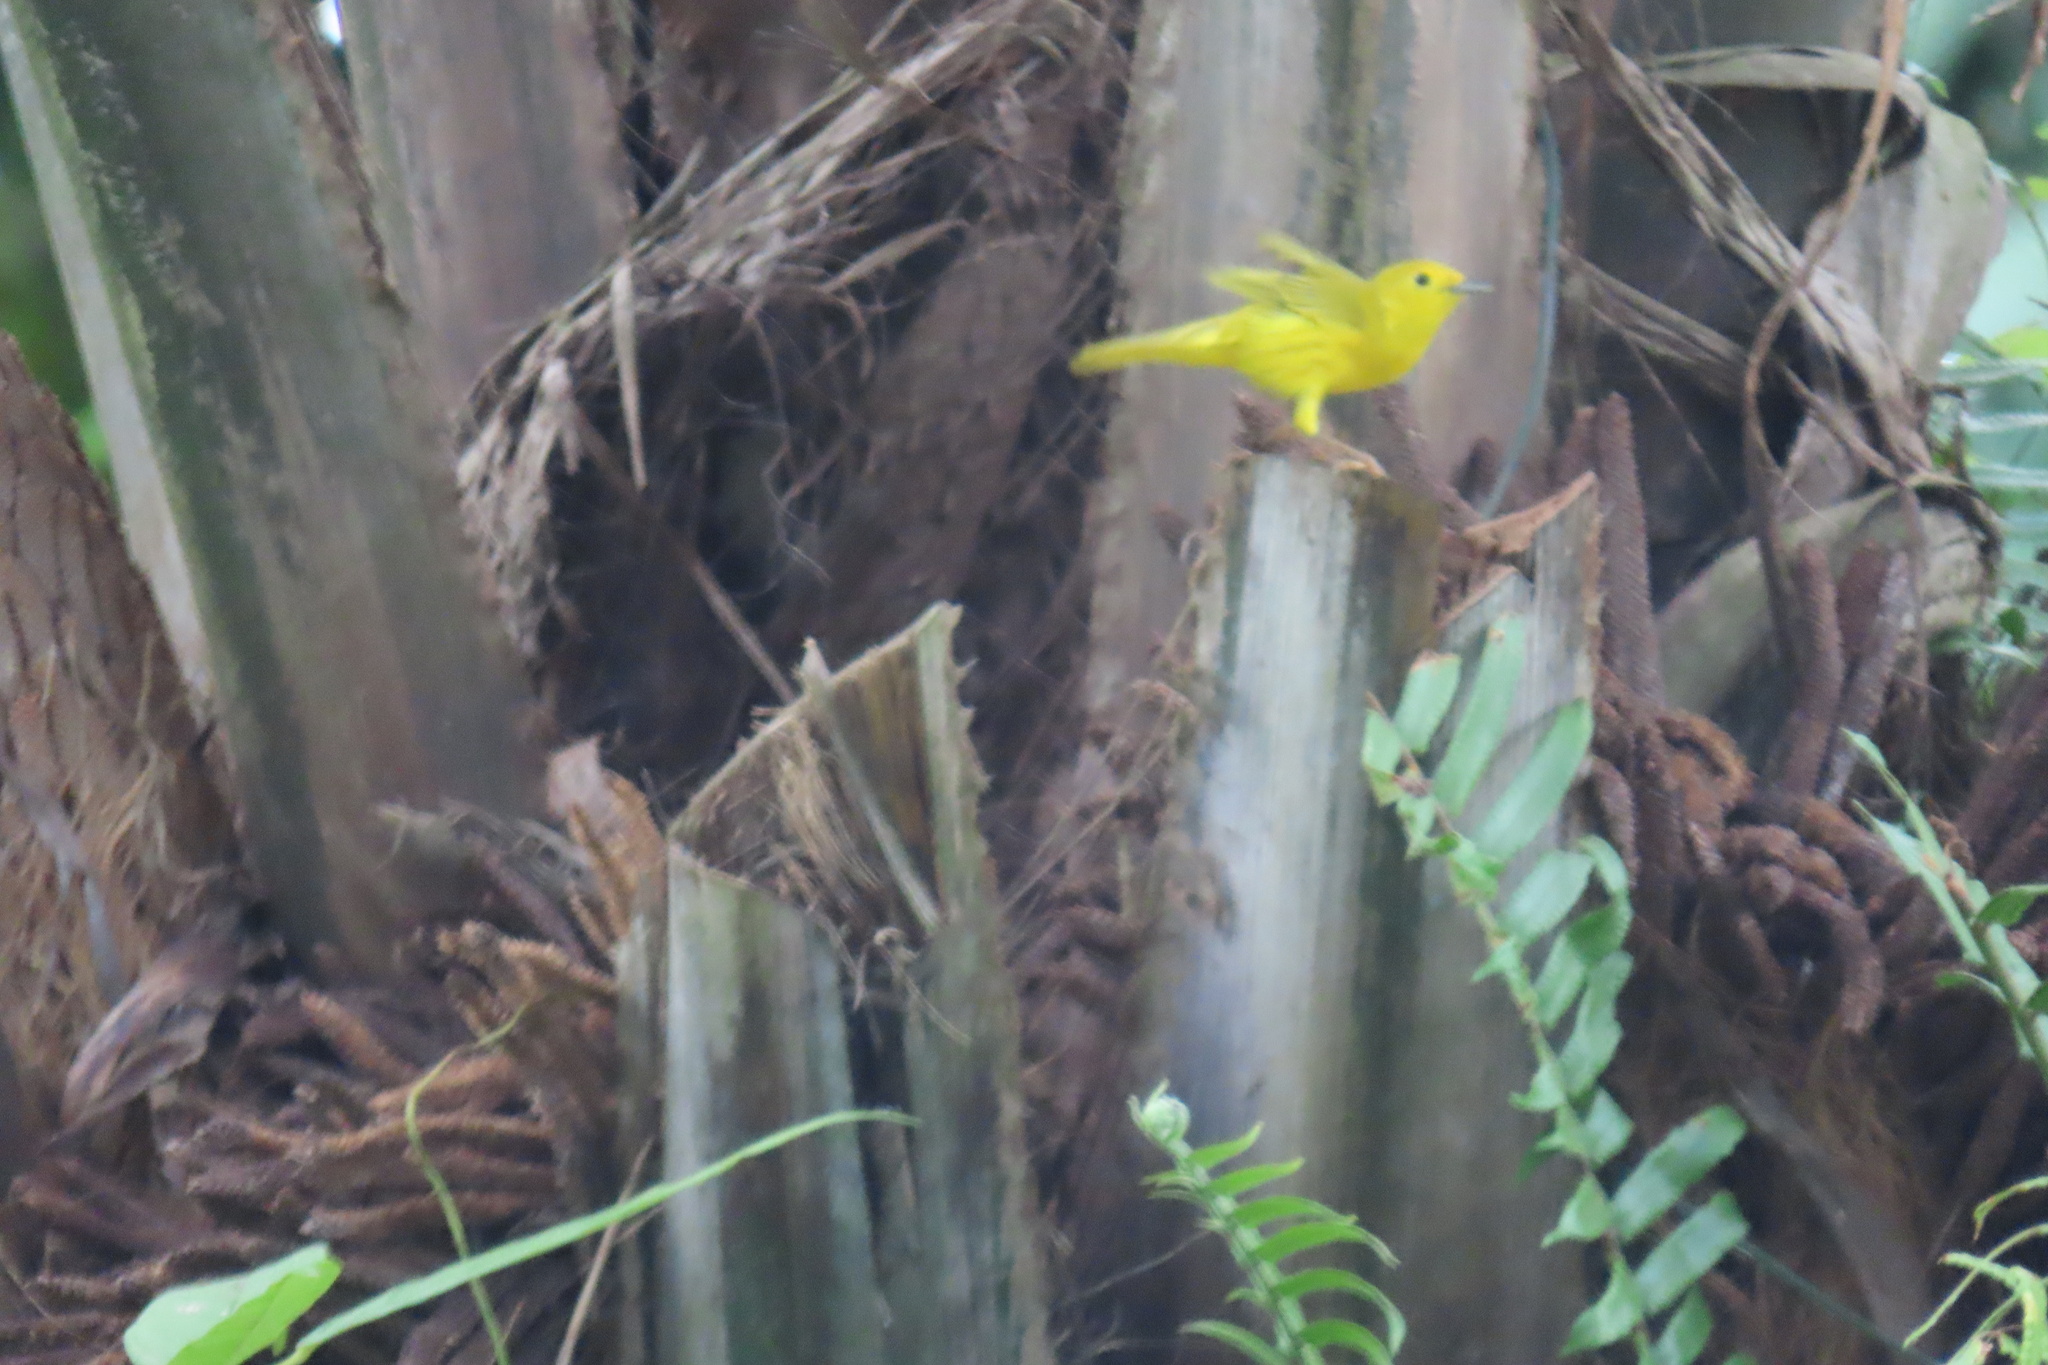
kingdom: Animalia
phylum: Chordata
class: Aves
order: Passeriformes
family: Parulidae
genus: Setophaga
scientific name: Setophaga petechia
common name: Yellow warbler
